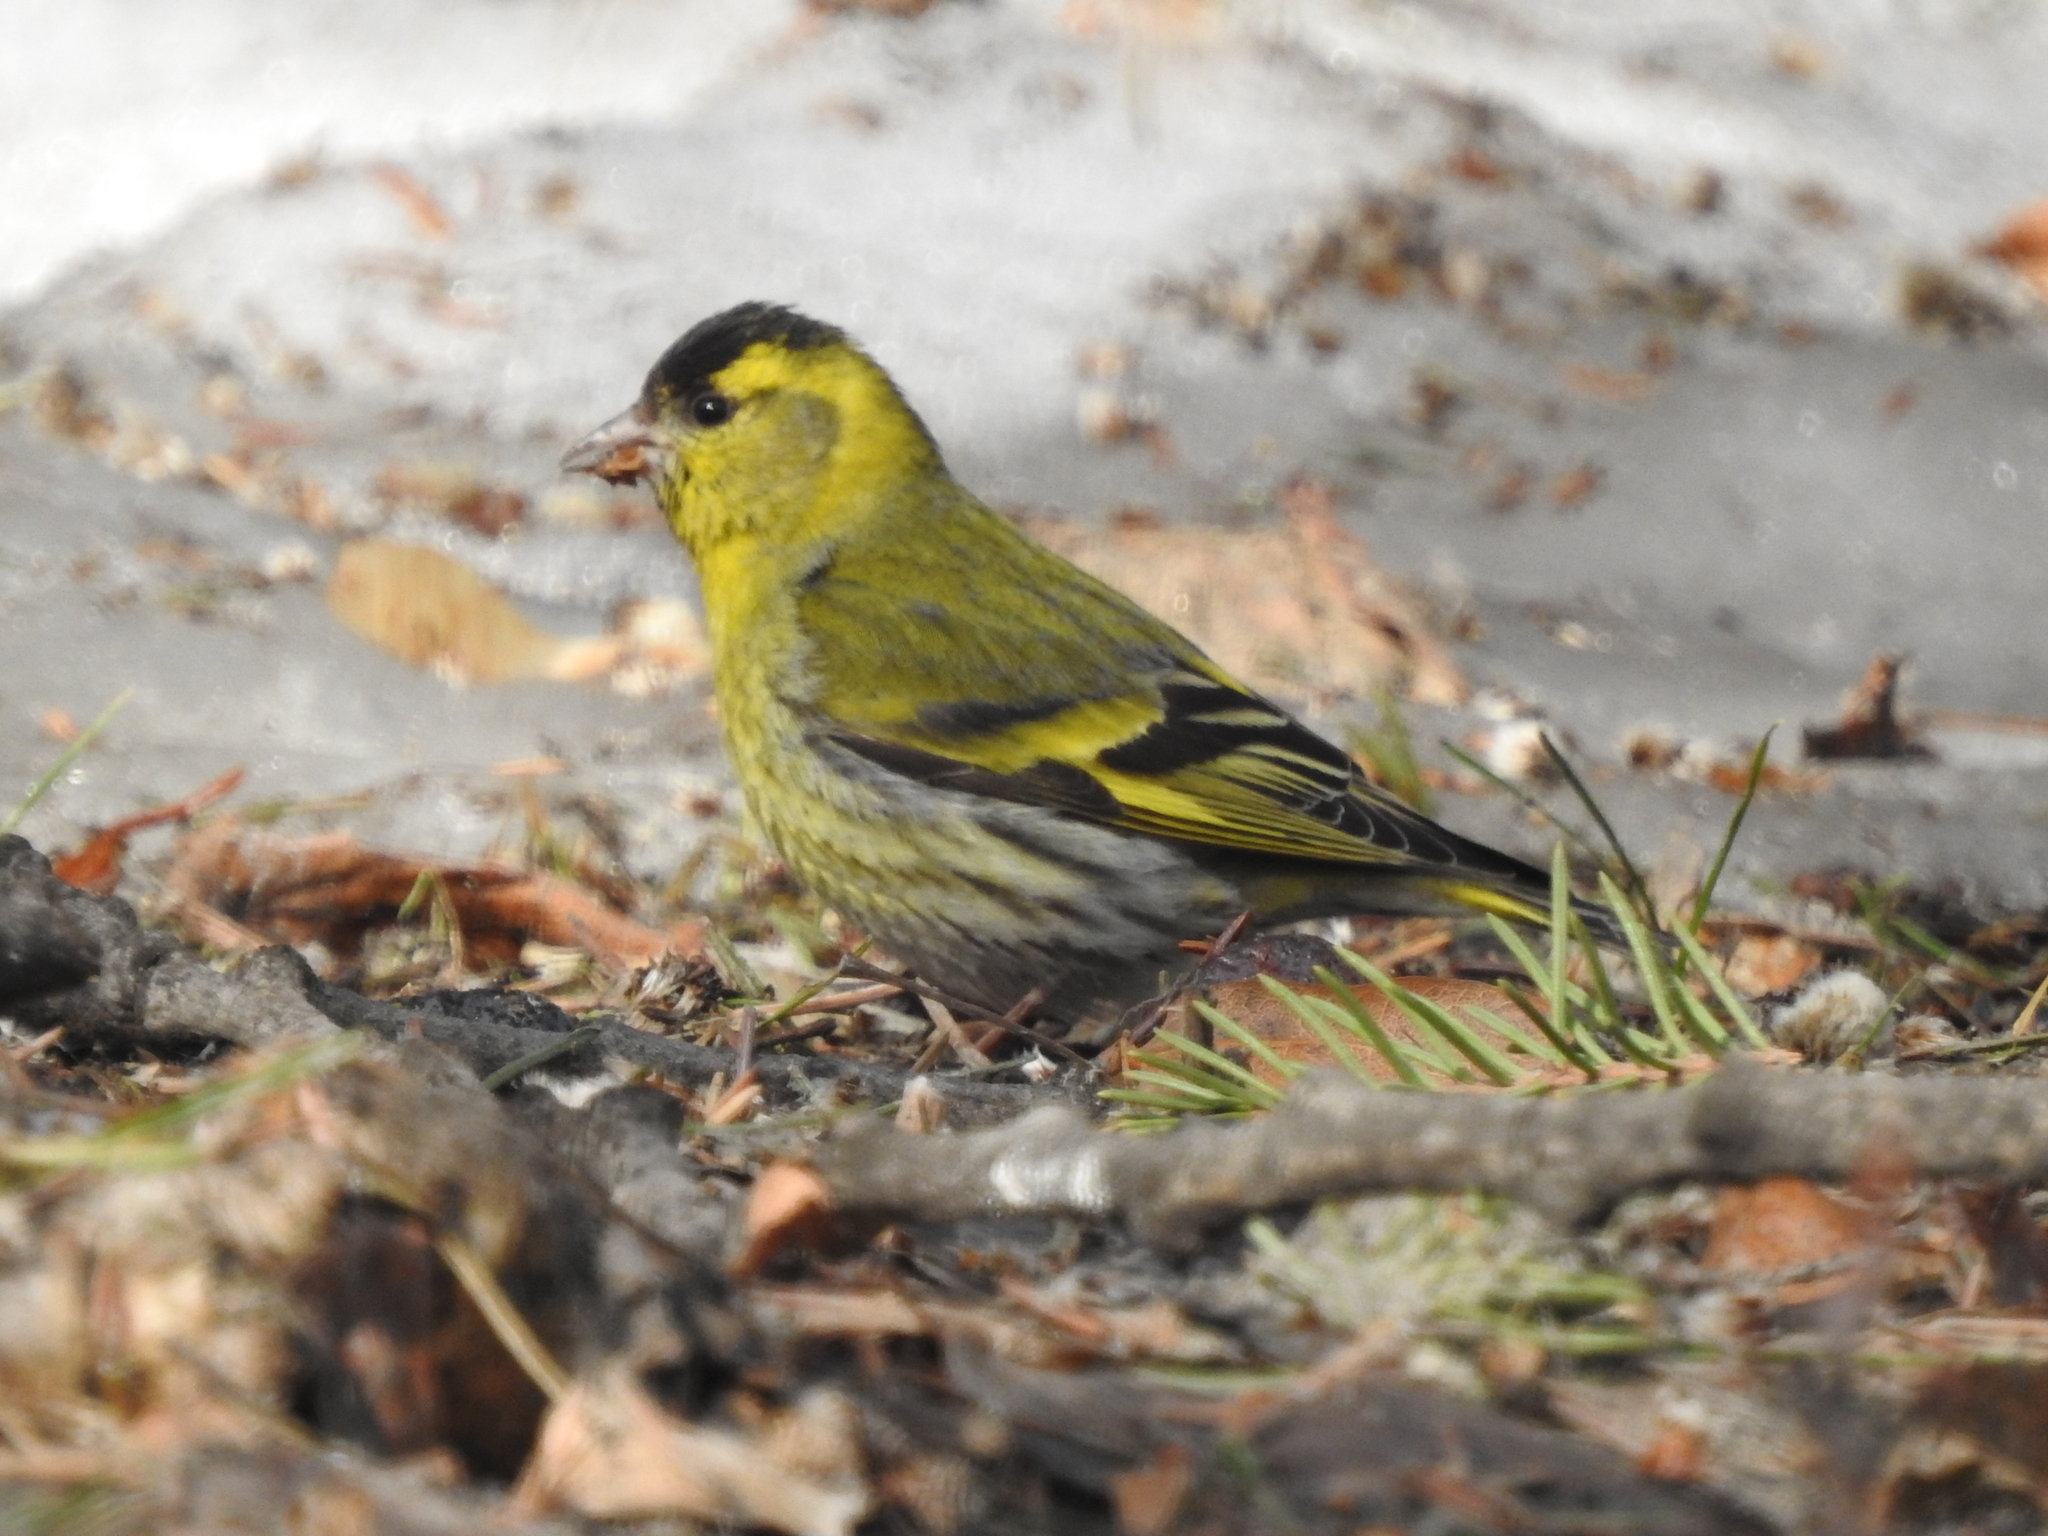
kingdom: Animalia
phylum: Chordata
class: Aves
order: Passeriformes
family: Fringillidae
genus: Spinus
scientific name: Spinus spinus
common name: Eurasian siskin
